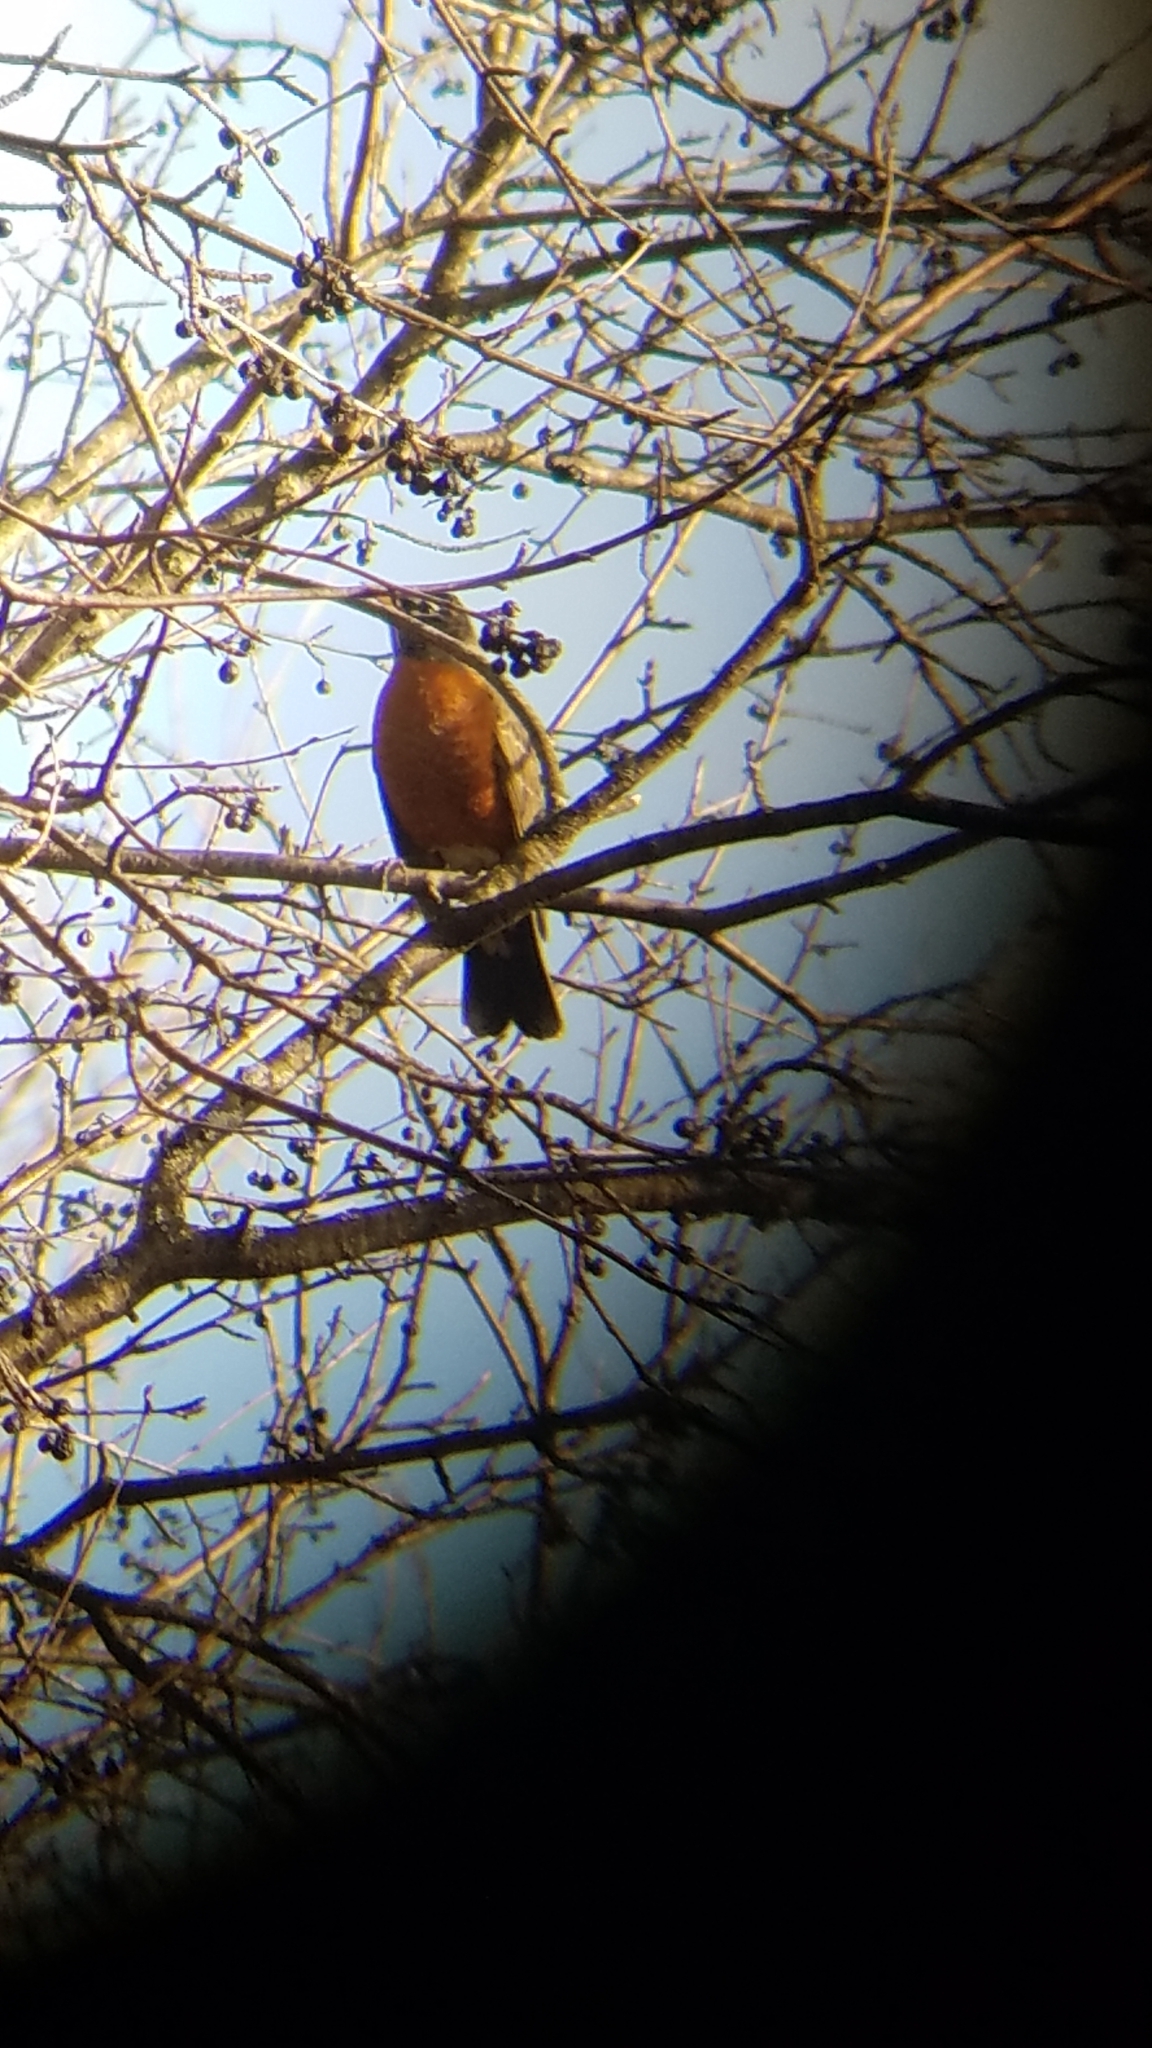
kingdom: Animalia
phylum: Chordata
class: Aves
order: Passeriformes
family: Turdidae
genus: Turdus
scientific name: Turdus migratorius
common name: American robin
